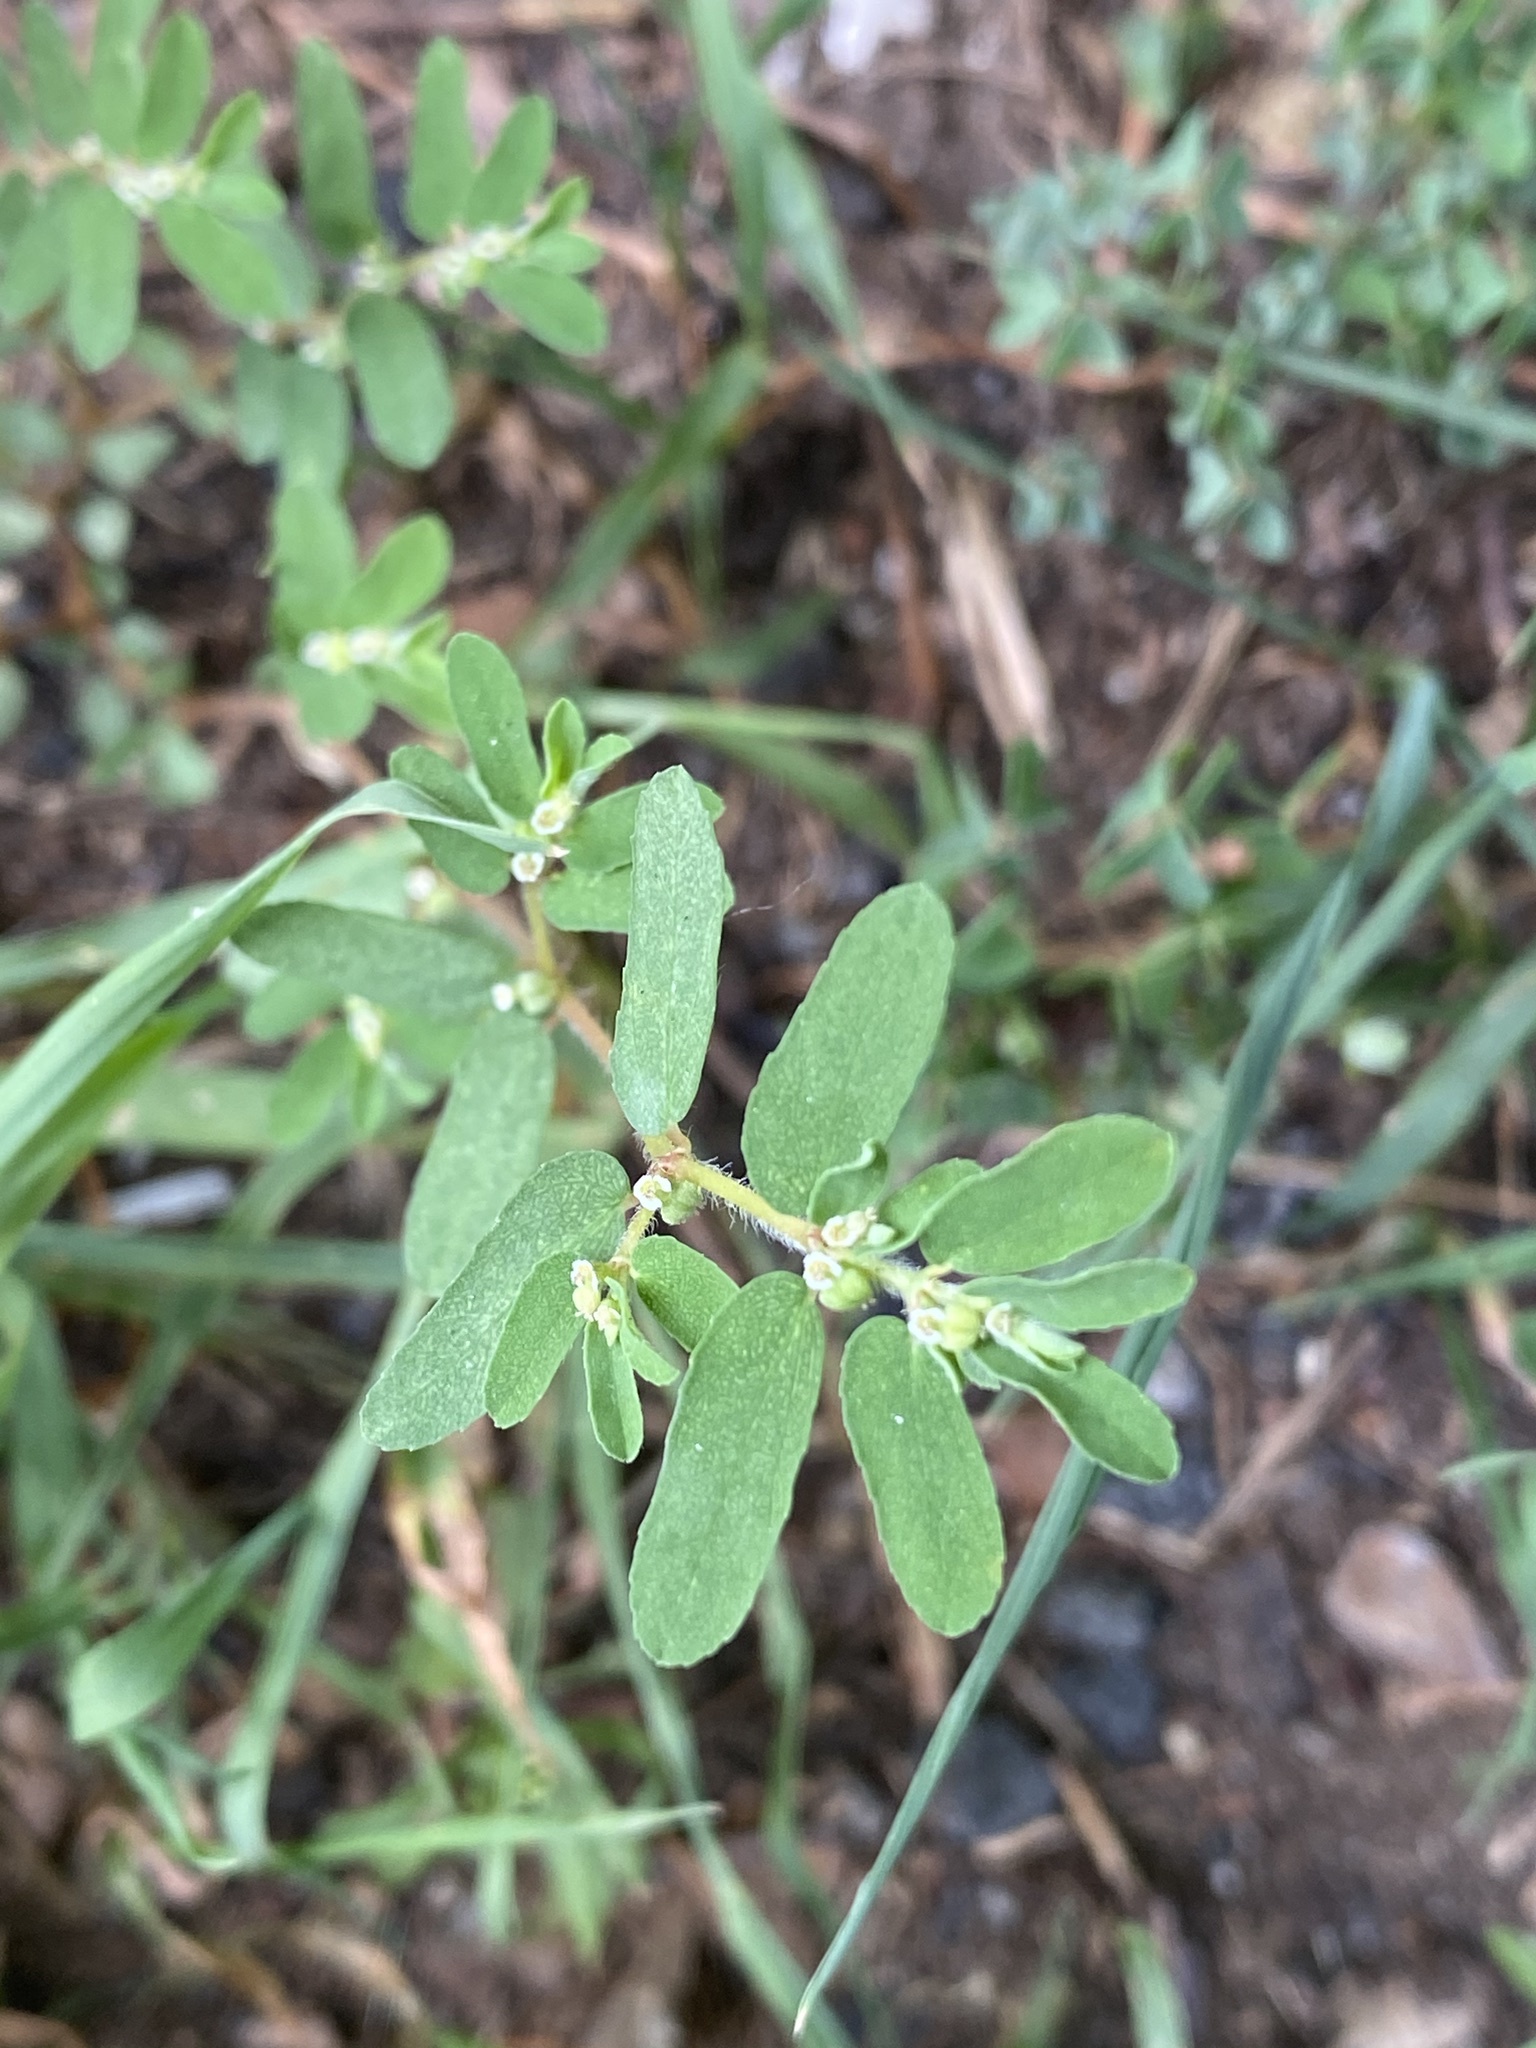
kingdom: Plantae
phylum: Tracheophyta
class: Magnoliopsida
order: Malpighiales
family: Euphorbiaceae
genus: Euphorbia
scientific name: Euphorbia maculata
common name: Spotted spurge
